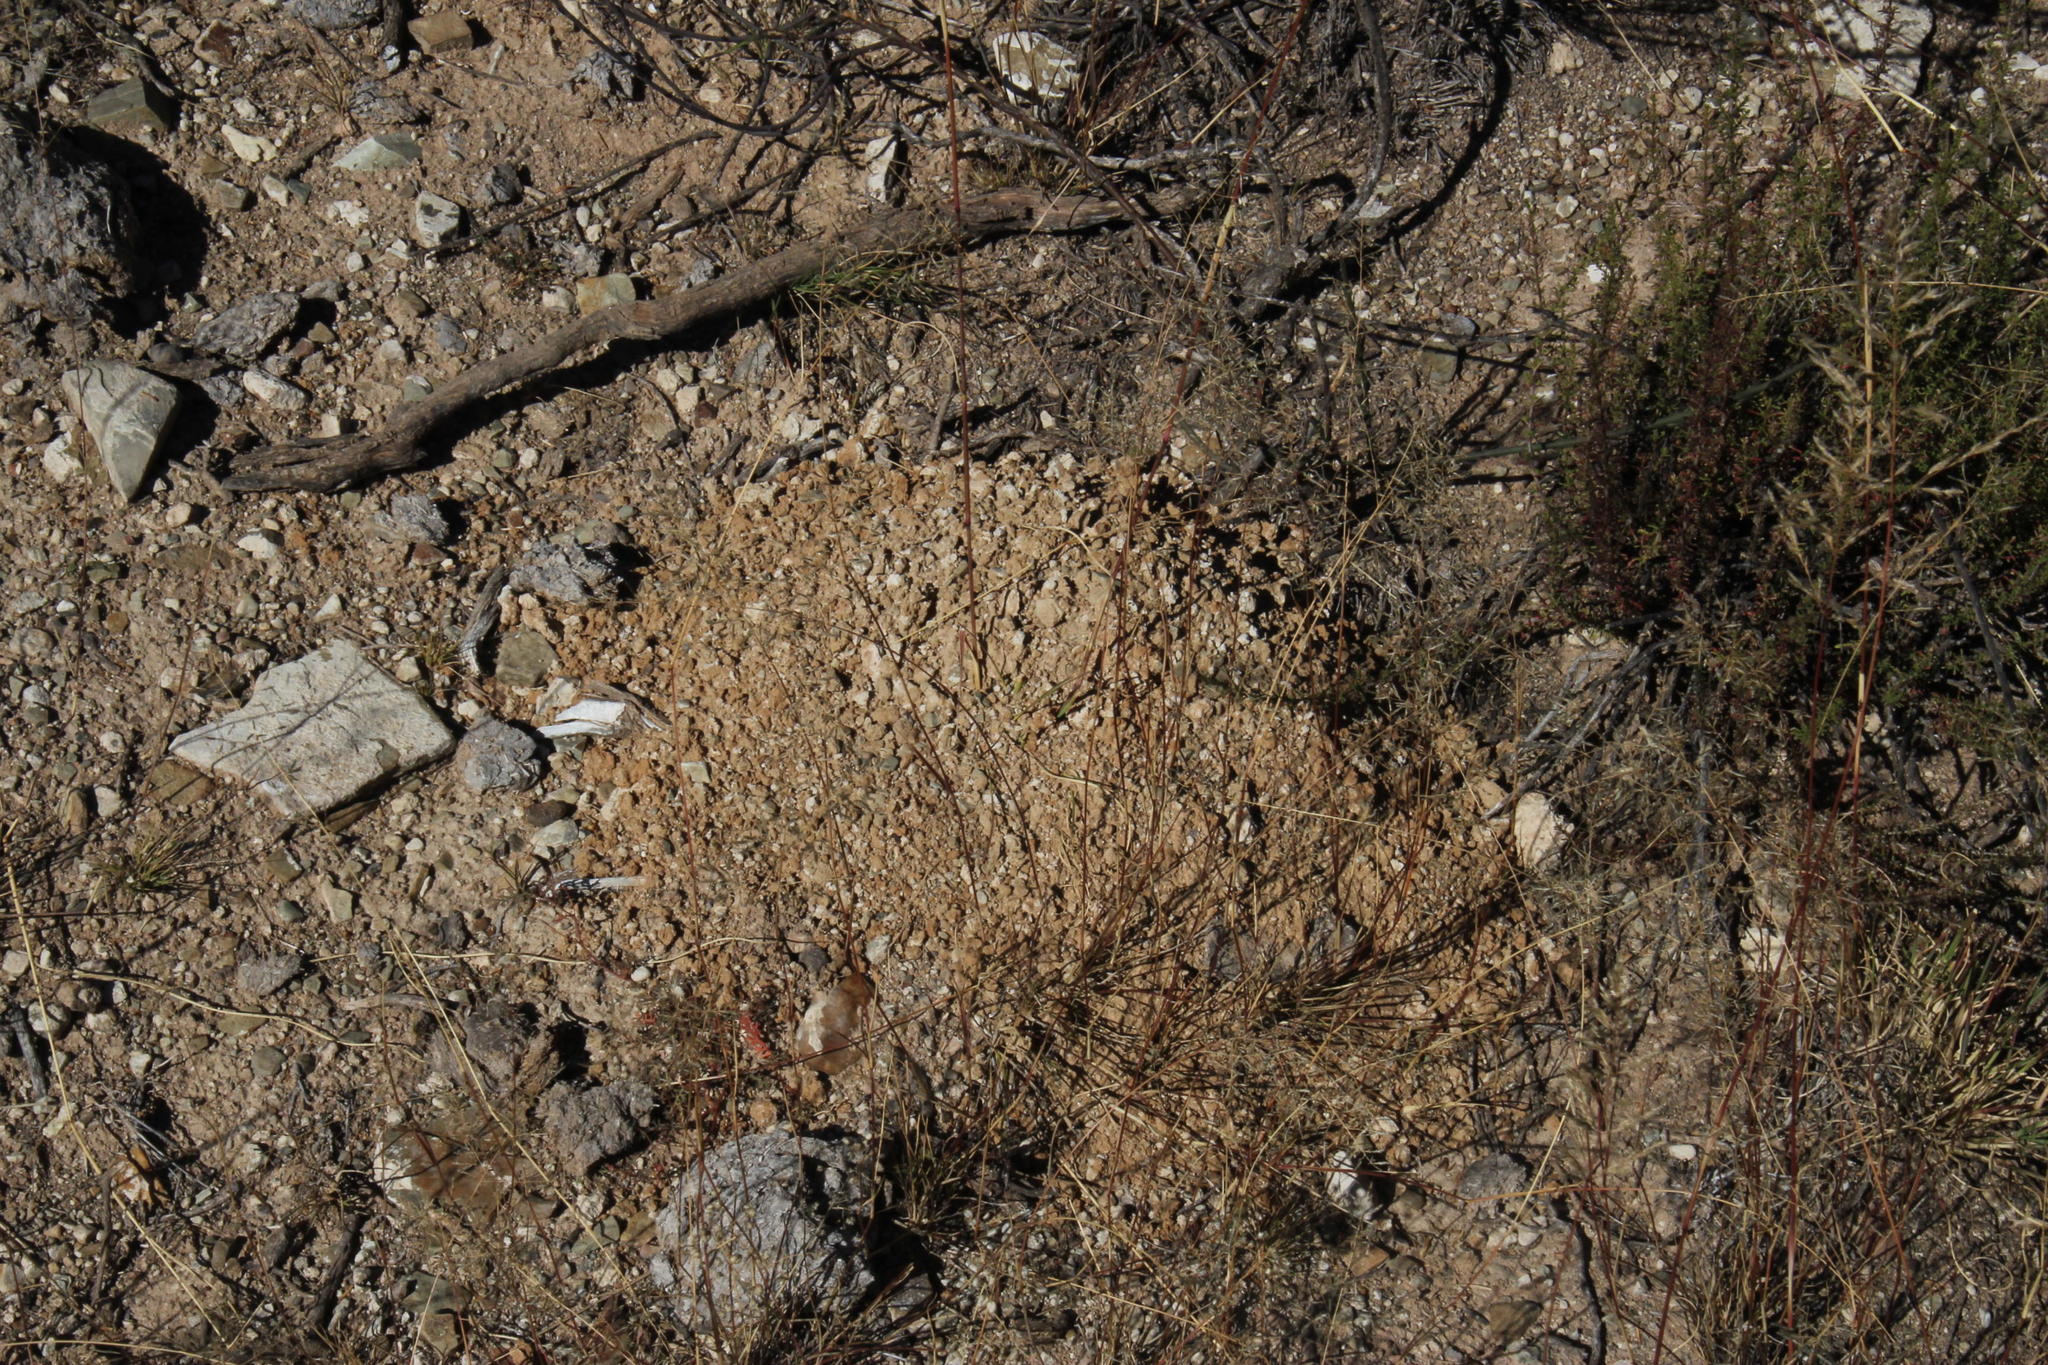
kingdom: Animalia
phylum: Chordata
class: Mammalia
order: Rodentia
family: Bathyergidae
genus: Cryptomys
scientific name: Cryptomys hottentotus
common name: Southern african mole-rat
